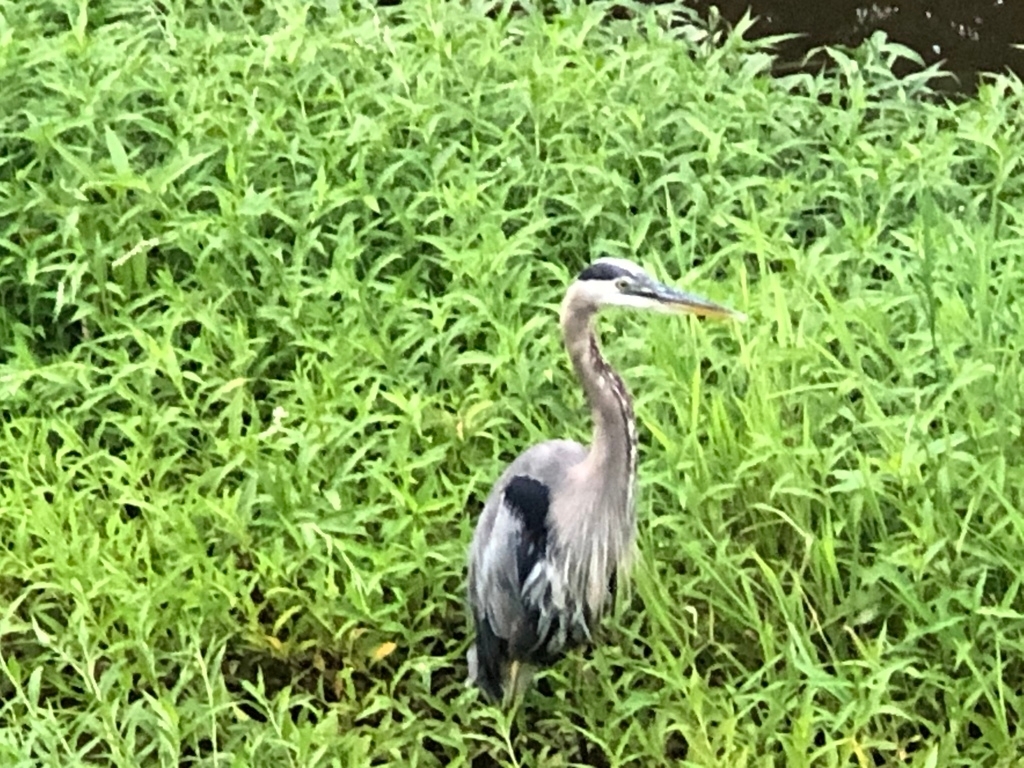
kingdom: Animalia
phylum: Chordata
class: Aves
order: Pelecaniformes
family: Ardeidae
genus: Ardea
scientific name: Ardea herodias
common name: Great blue heron
